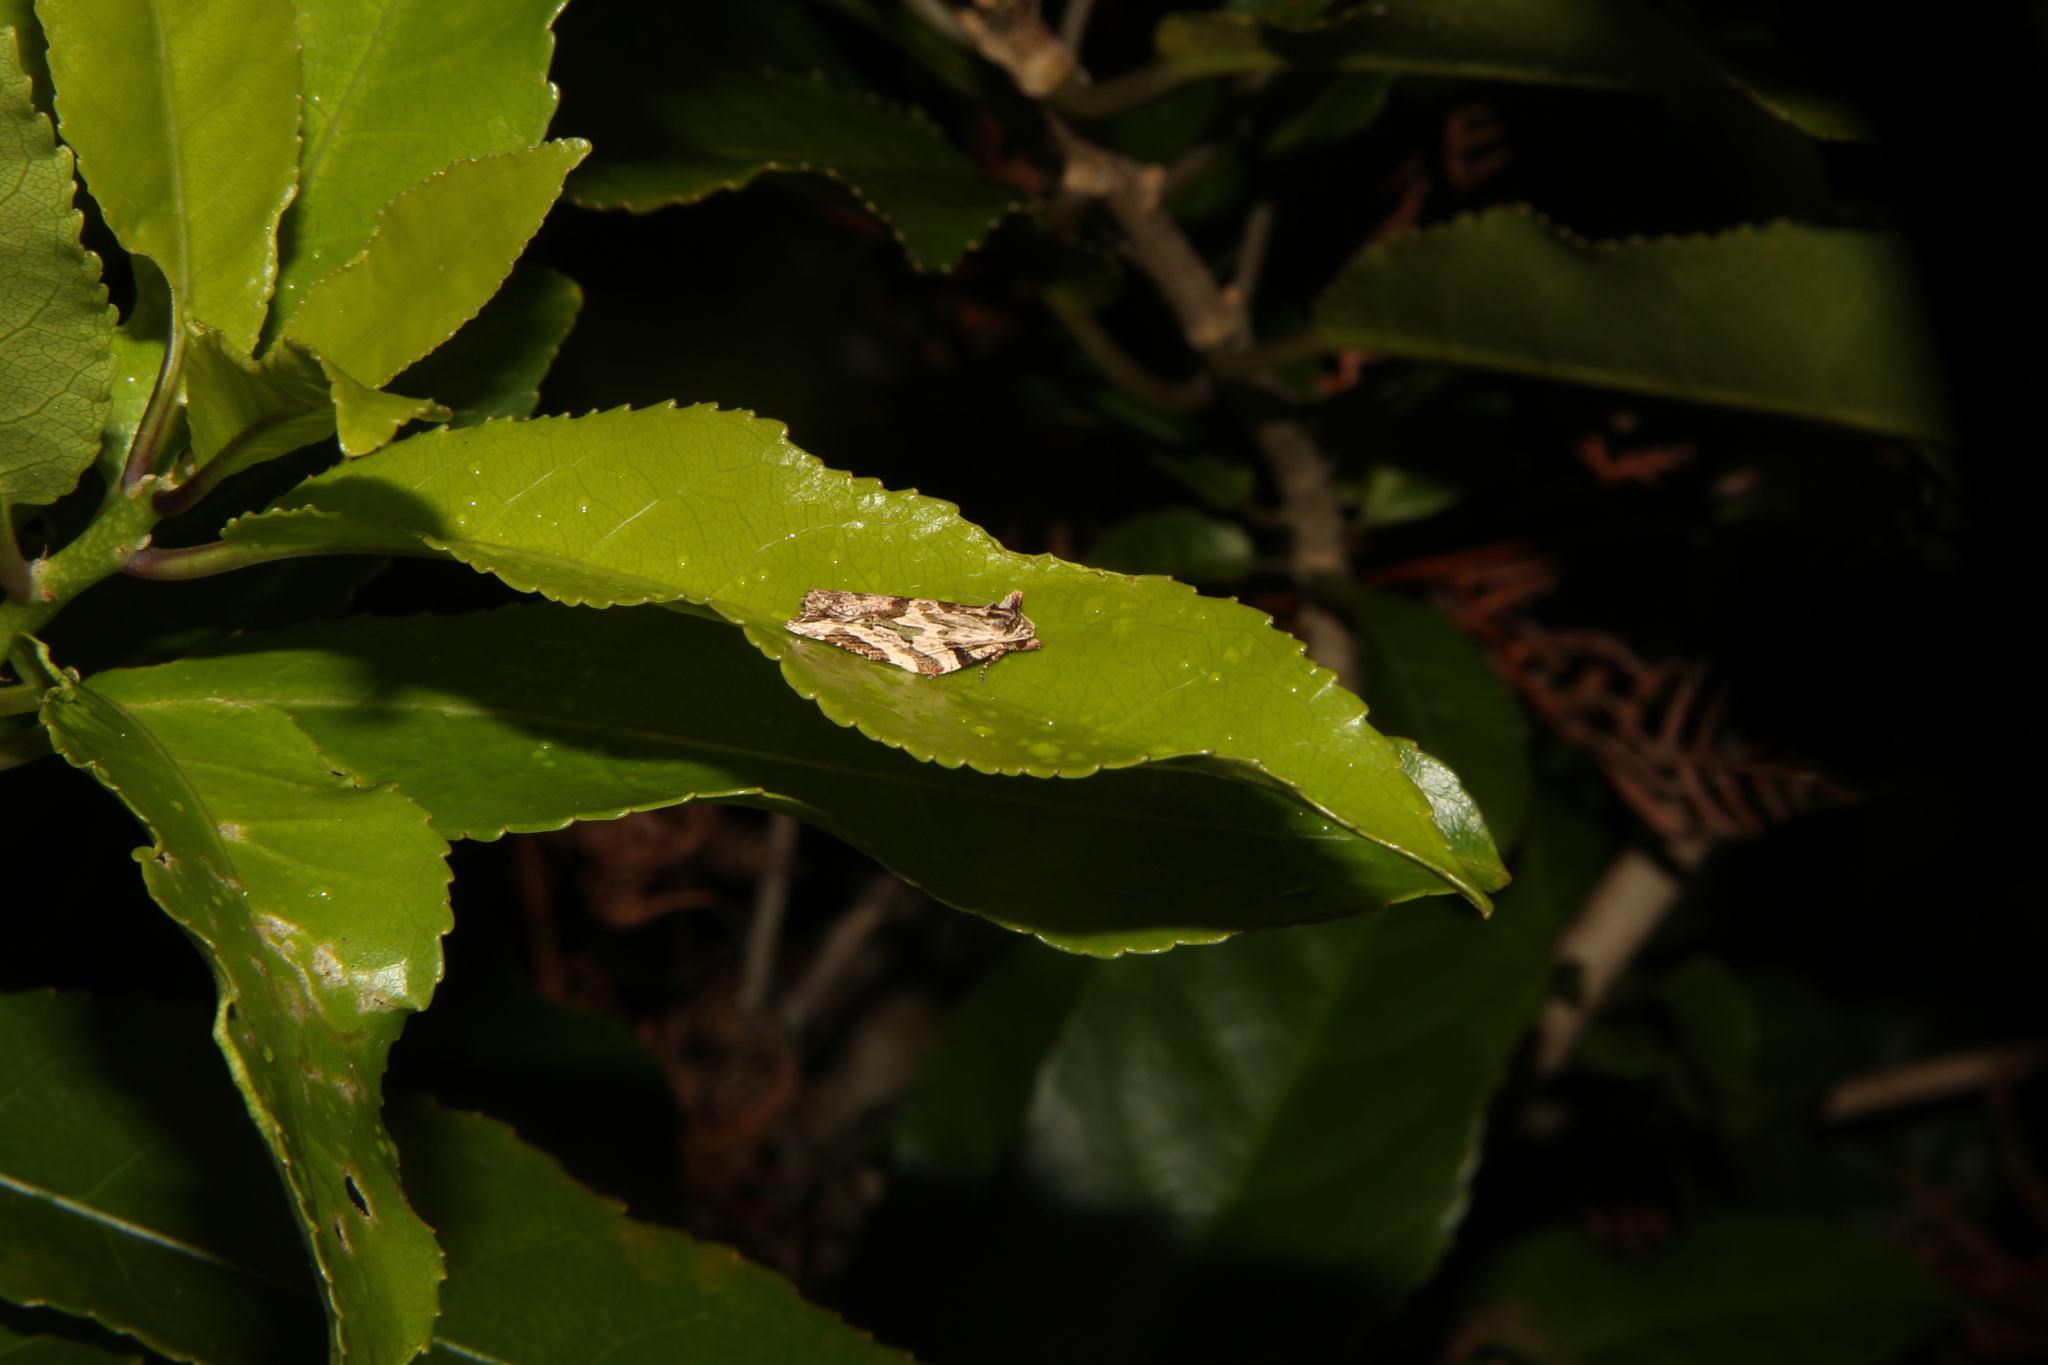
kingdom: Animalia
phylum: Arthropoda
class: Insecta
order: Lepidoptera
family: Tortricidae
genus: Epalxiphora
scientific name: Epalxiphora axenana
